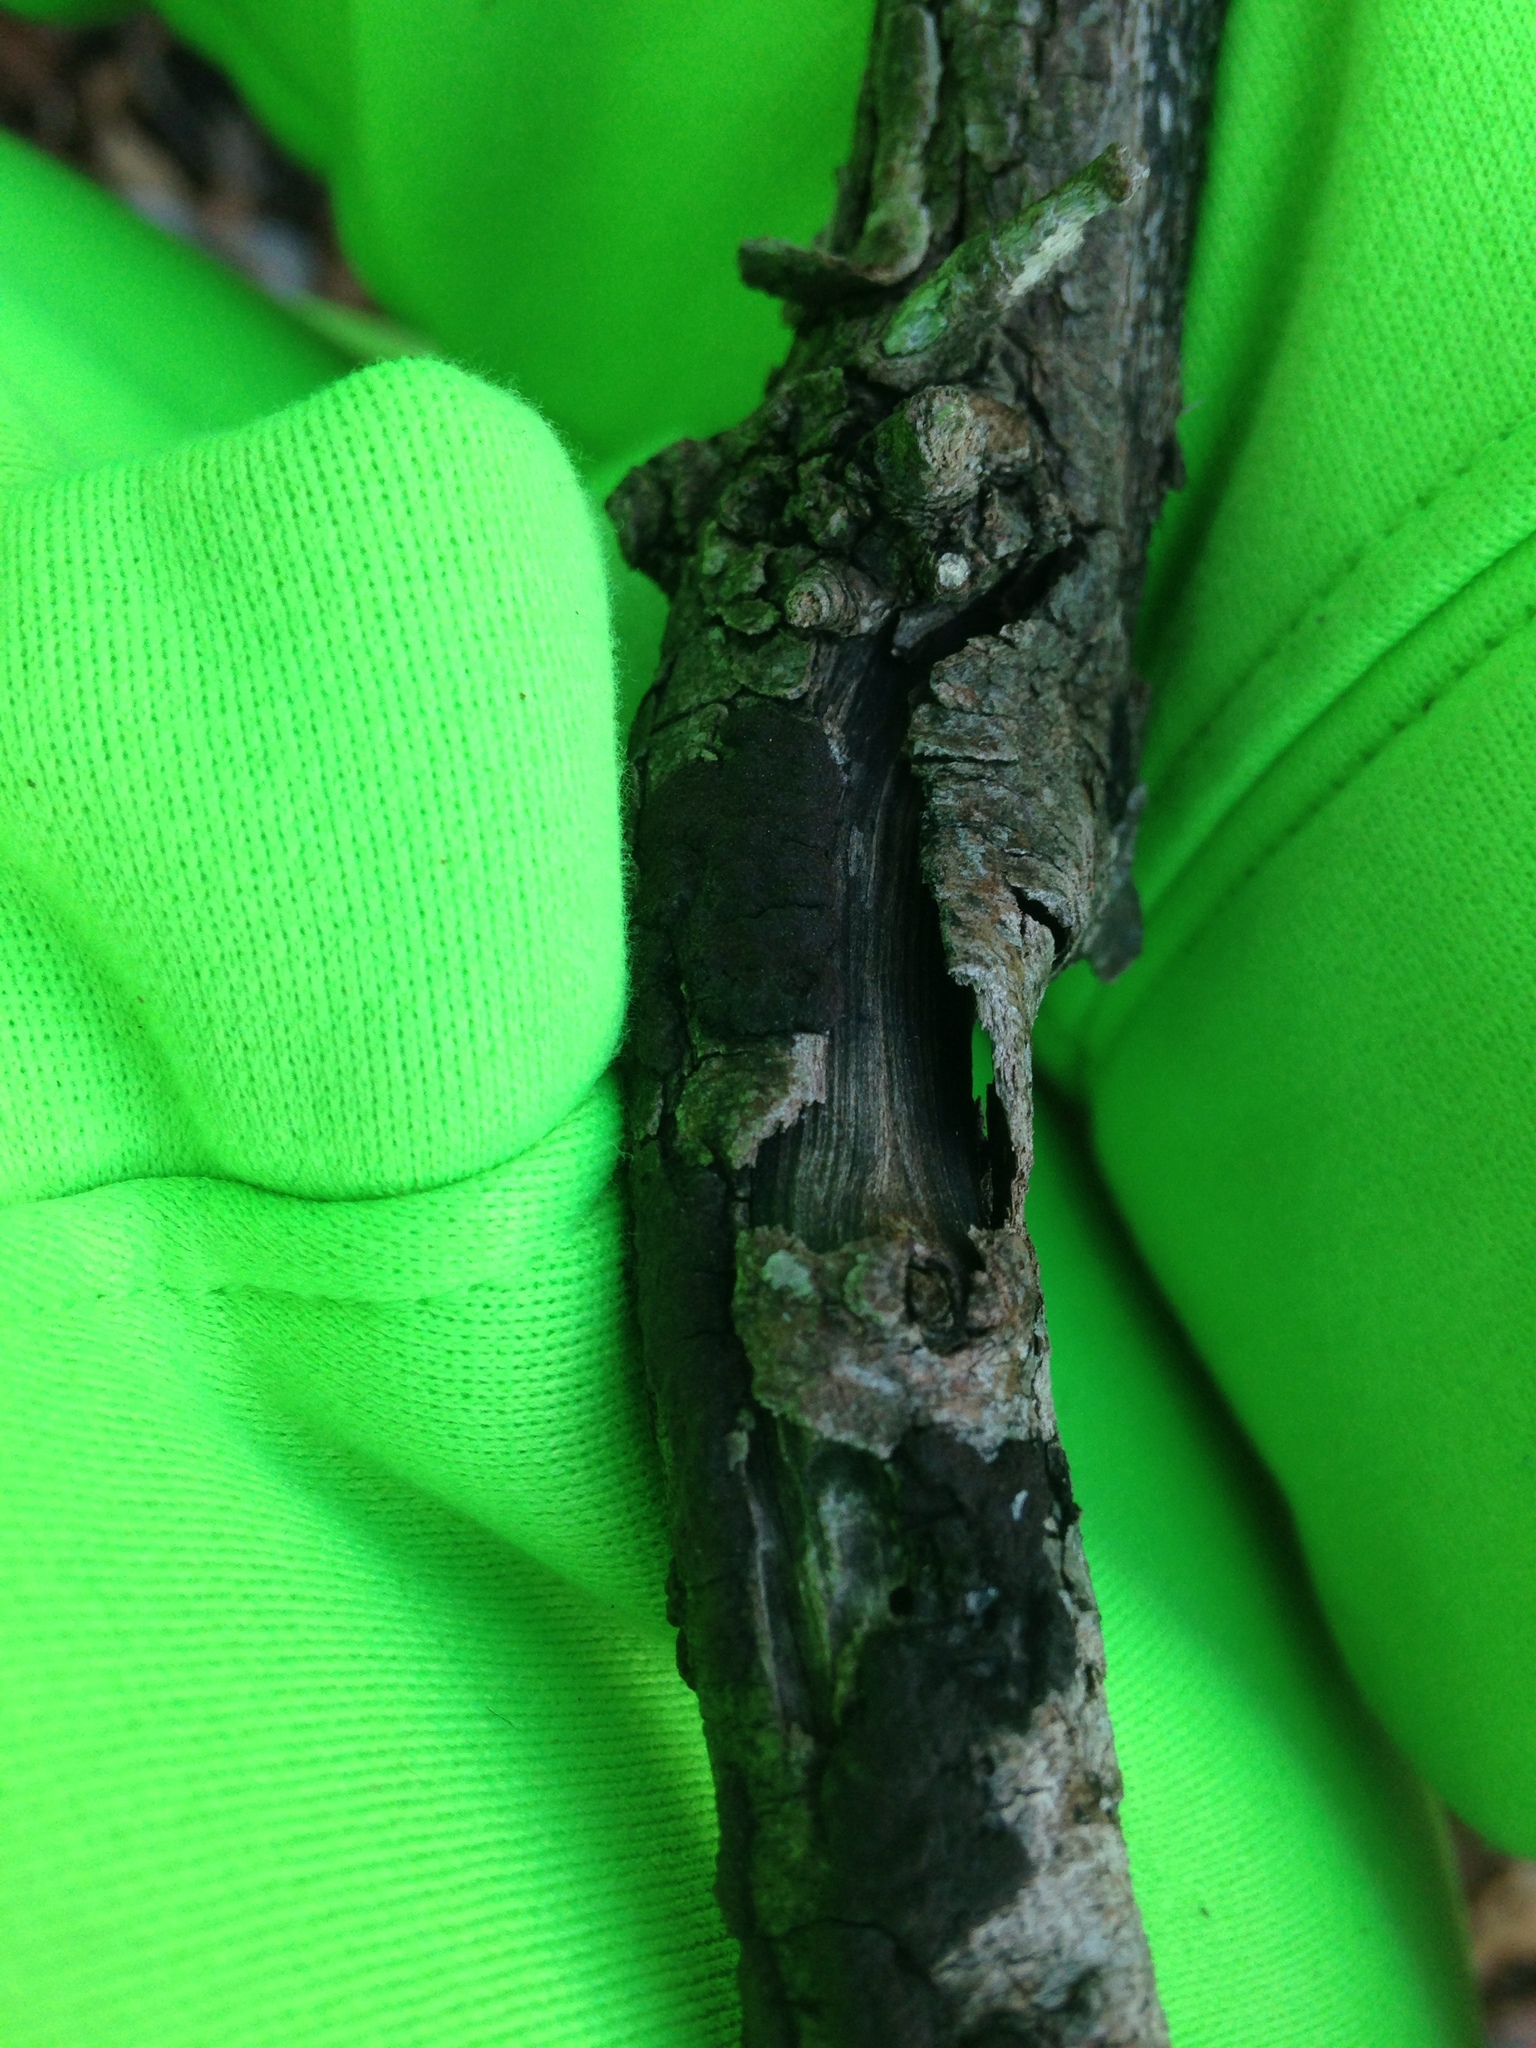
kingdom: Fungi
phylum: Ascomycota
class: Dothideomycetes
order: Venturiales
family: Venturiaceae
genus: Apiosporina
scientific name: Apiosporina morbosa
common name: Black knot
